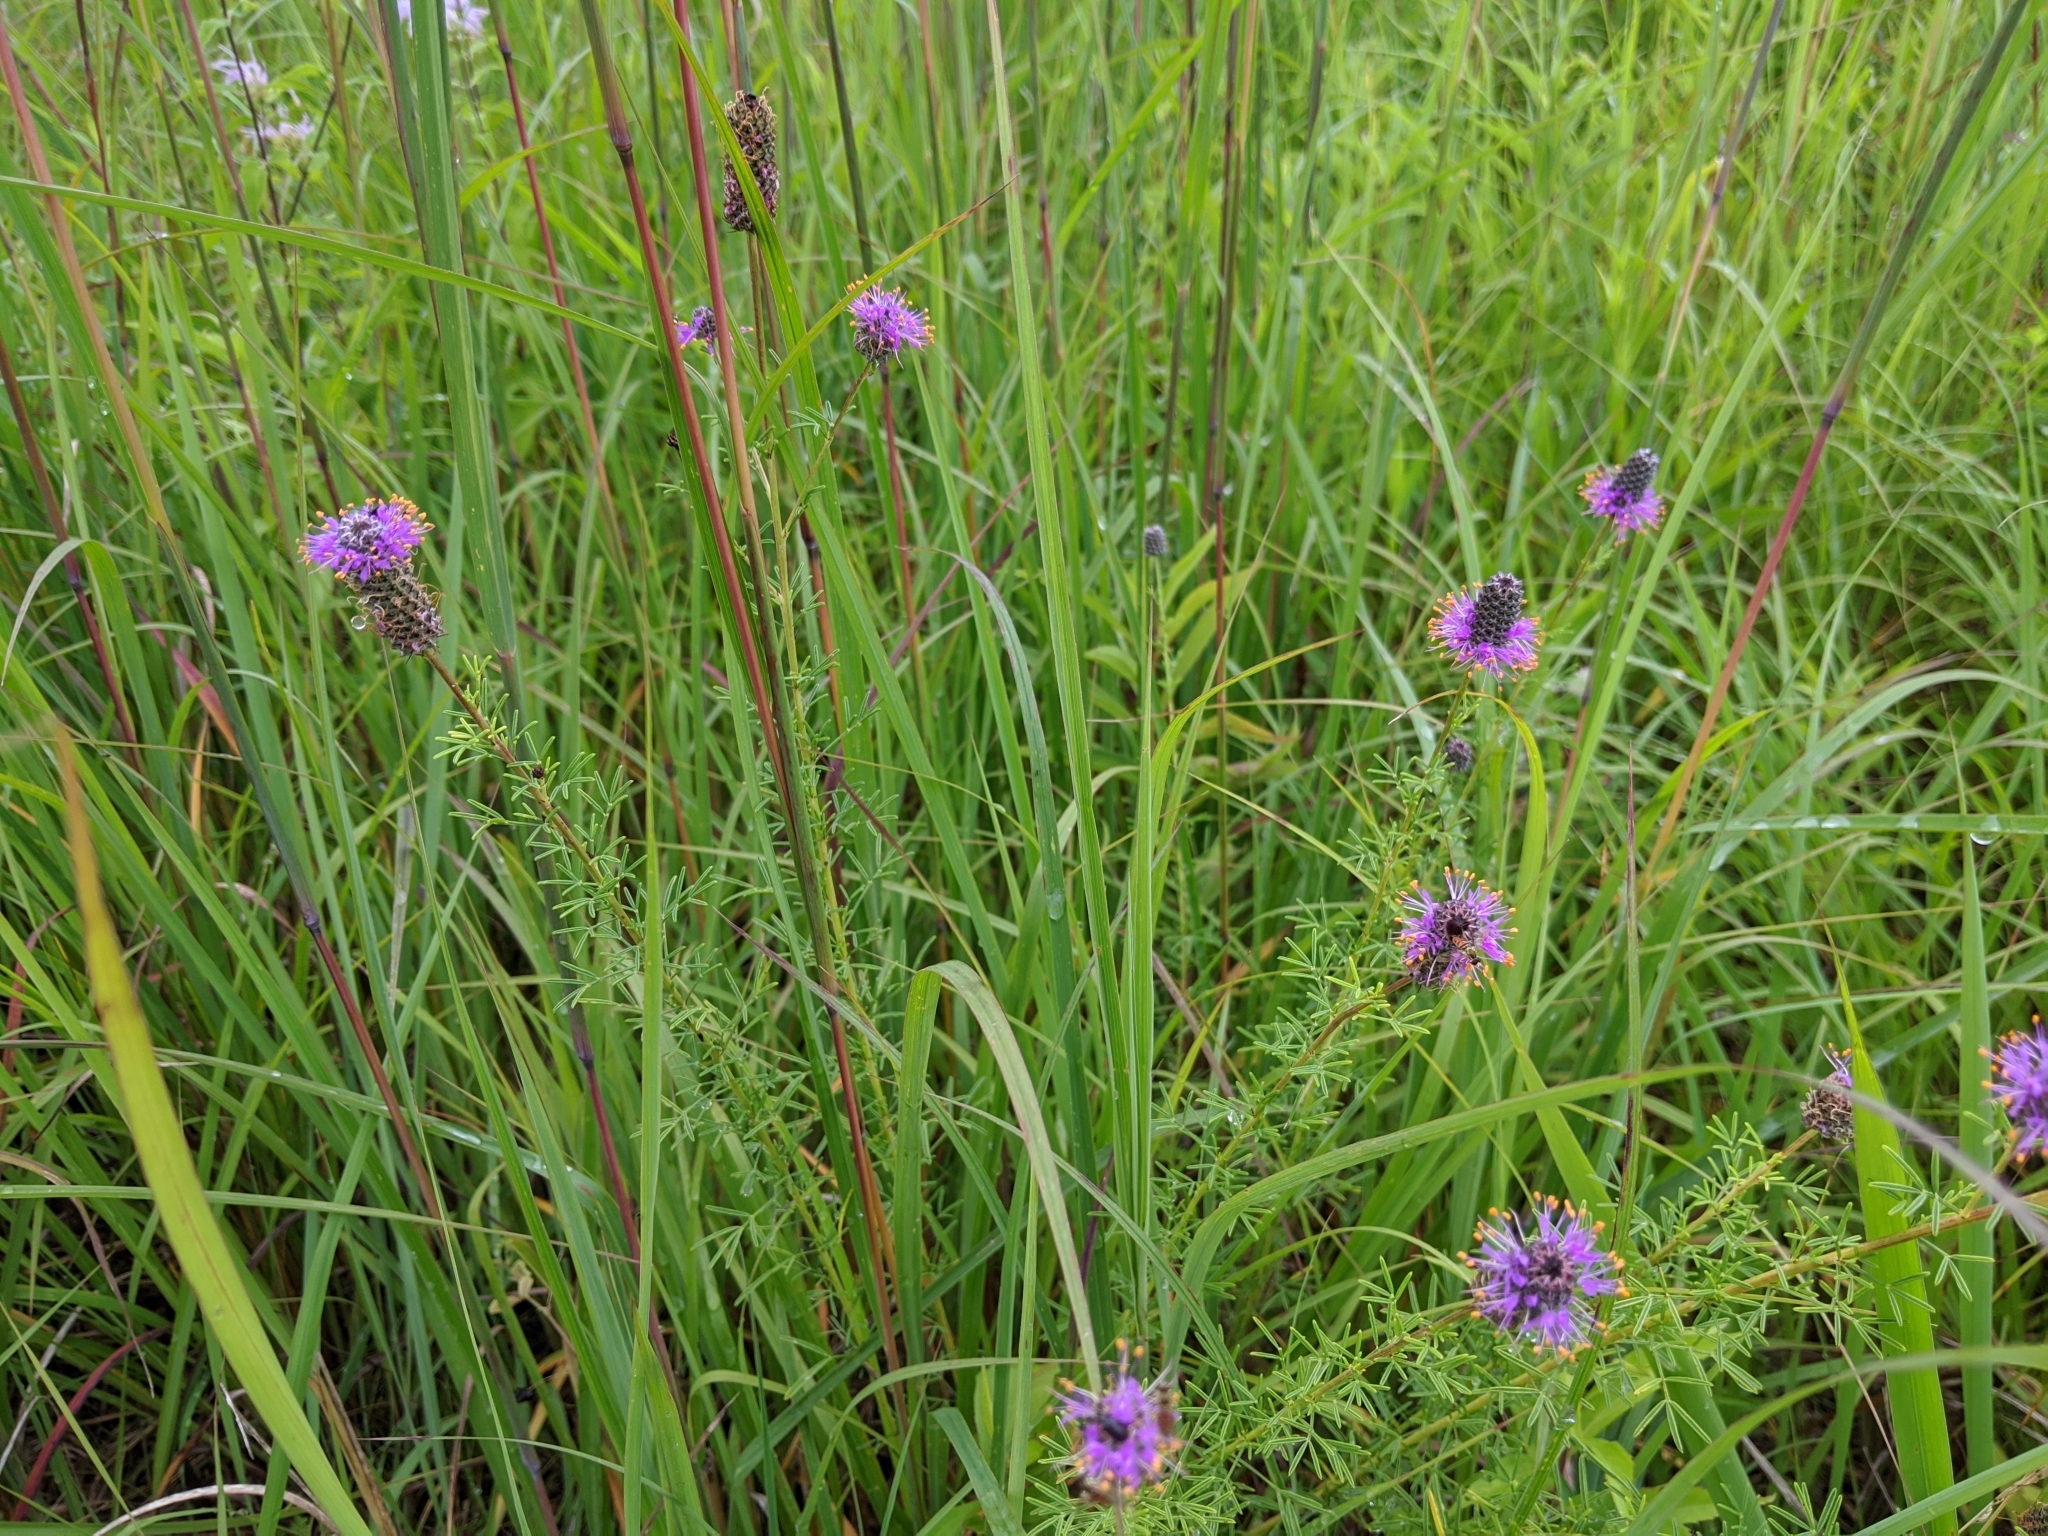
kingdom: Plantae
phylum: Tracheophyta
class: Magnoliopsida
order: Fabales
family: Fabaceae
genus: Dalea
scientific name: Dalea purpurea
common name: Purple prairie-clover
